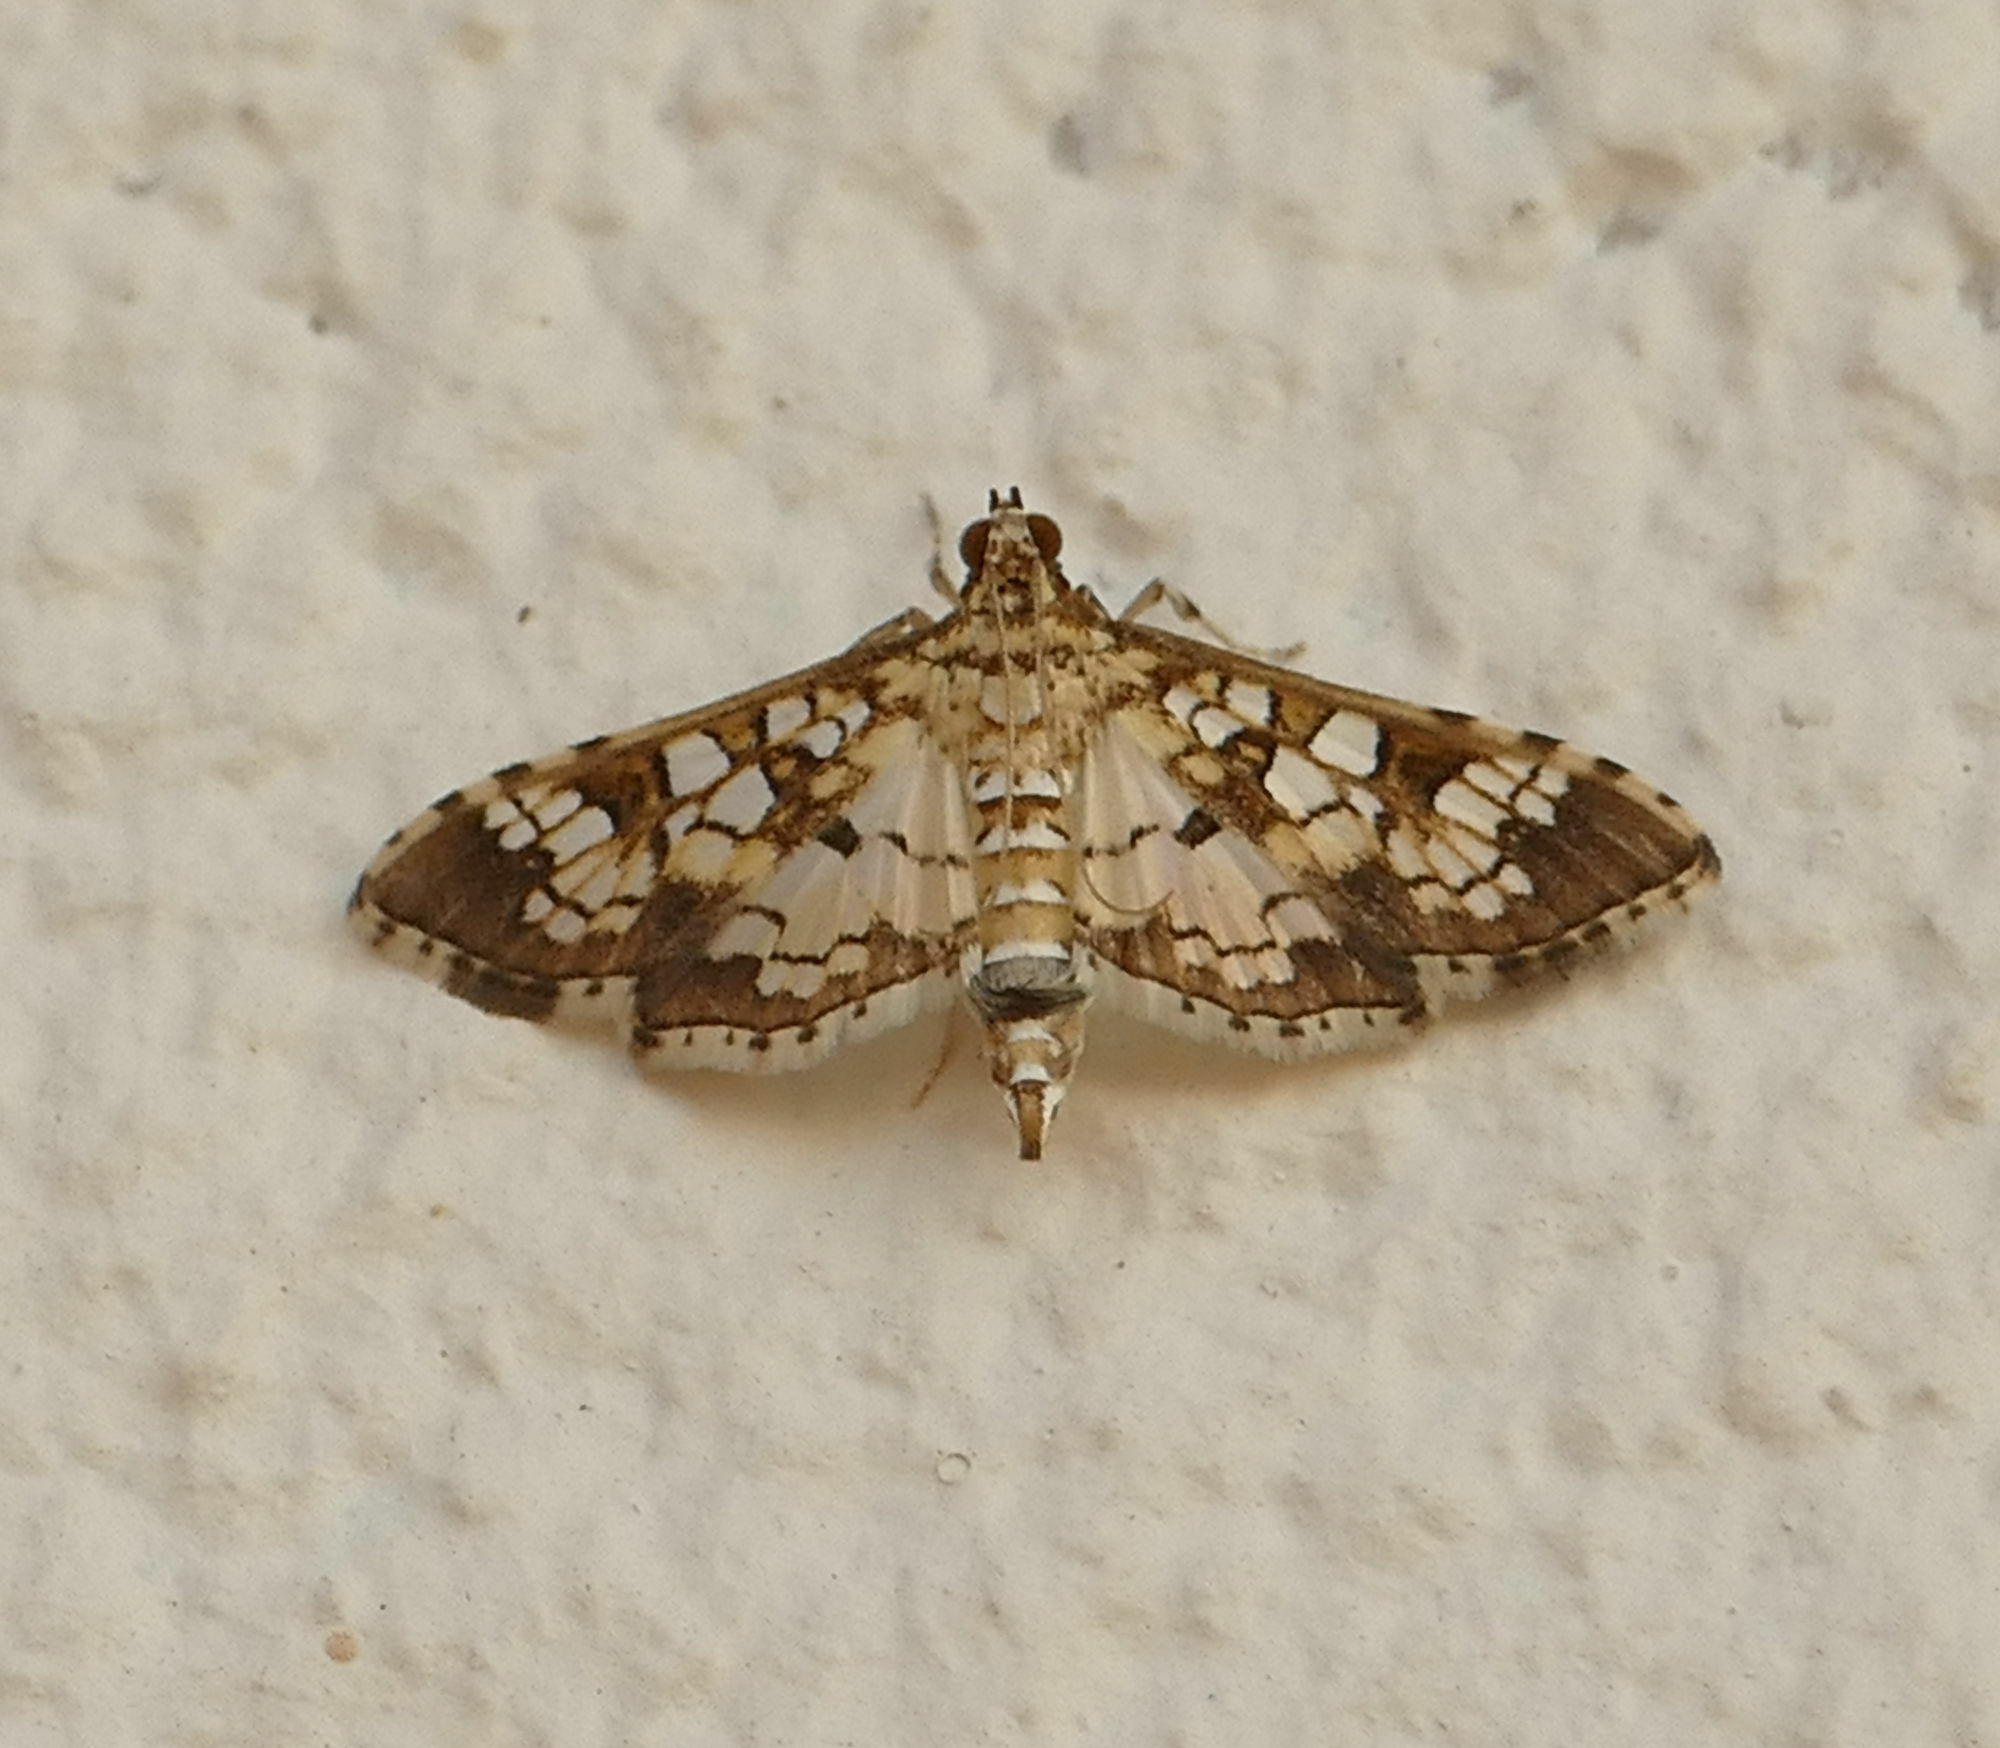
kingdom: Animalia
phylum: Arthropoda
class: Insecta
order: Lepidoptera
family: Crambidae
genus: Samea
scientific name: Samea ecclesialis
